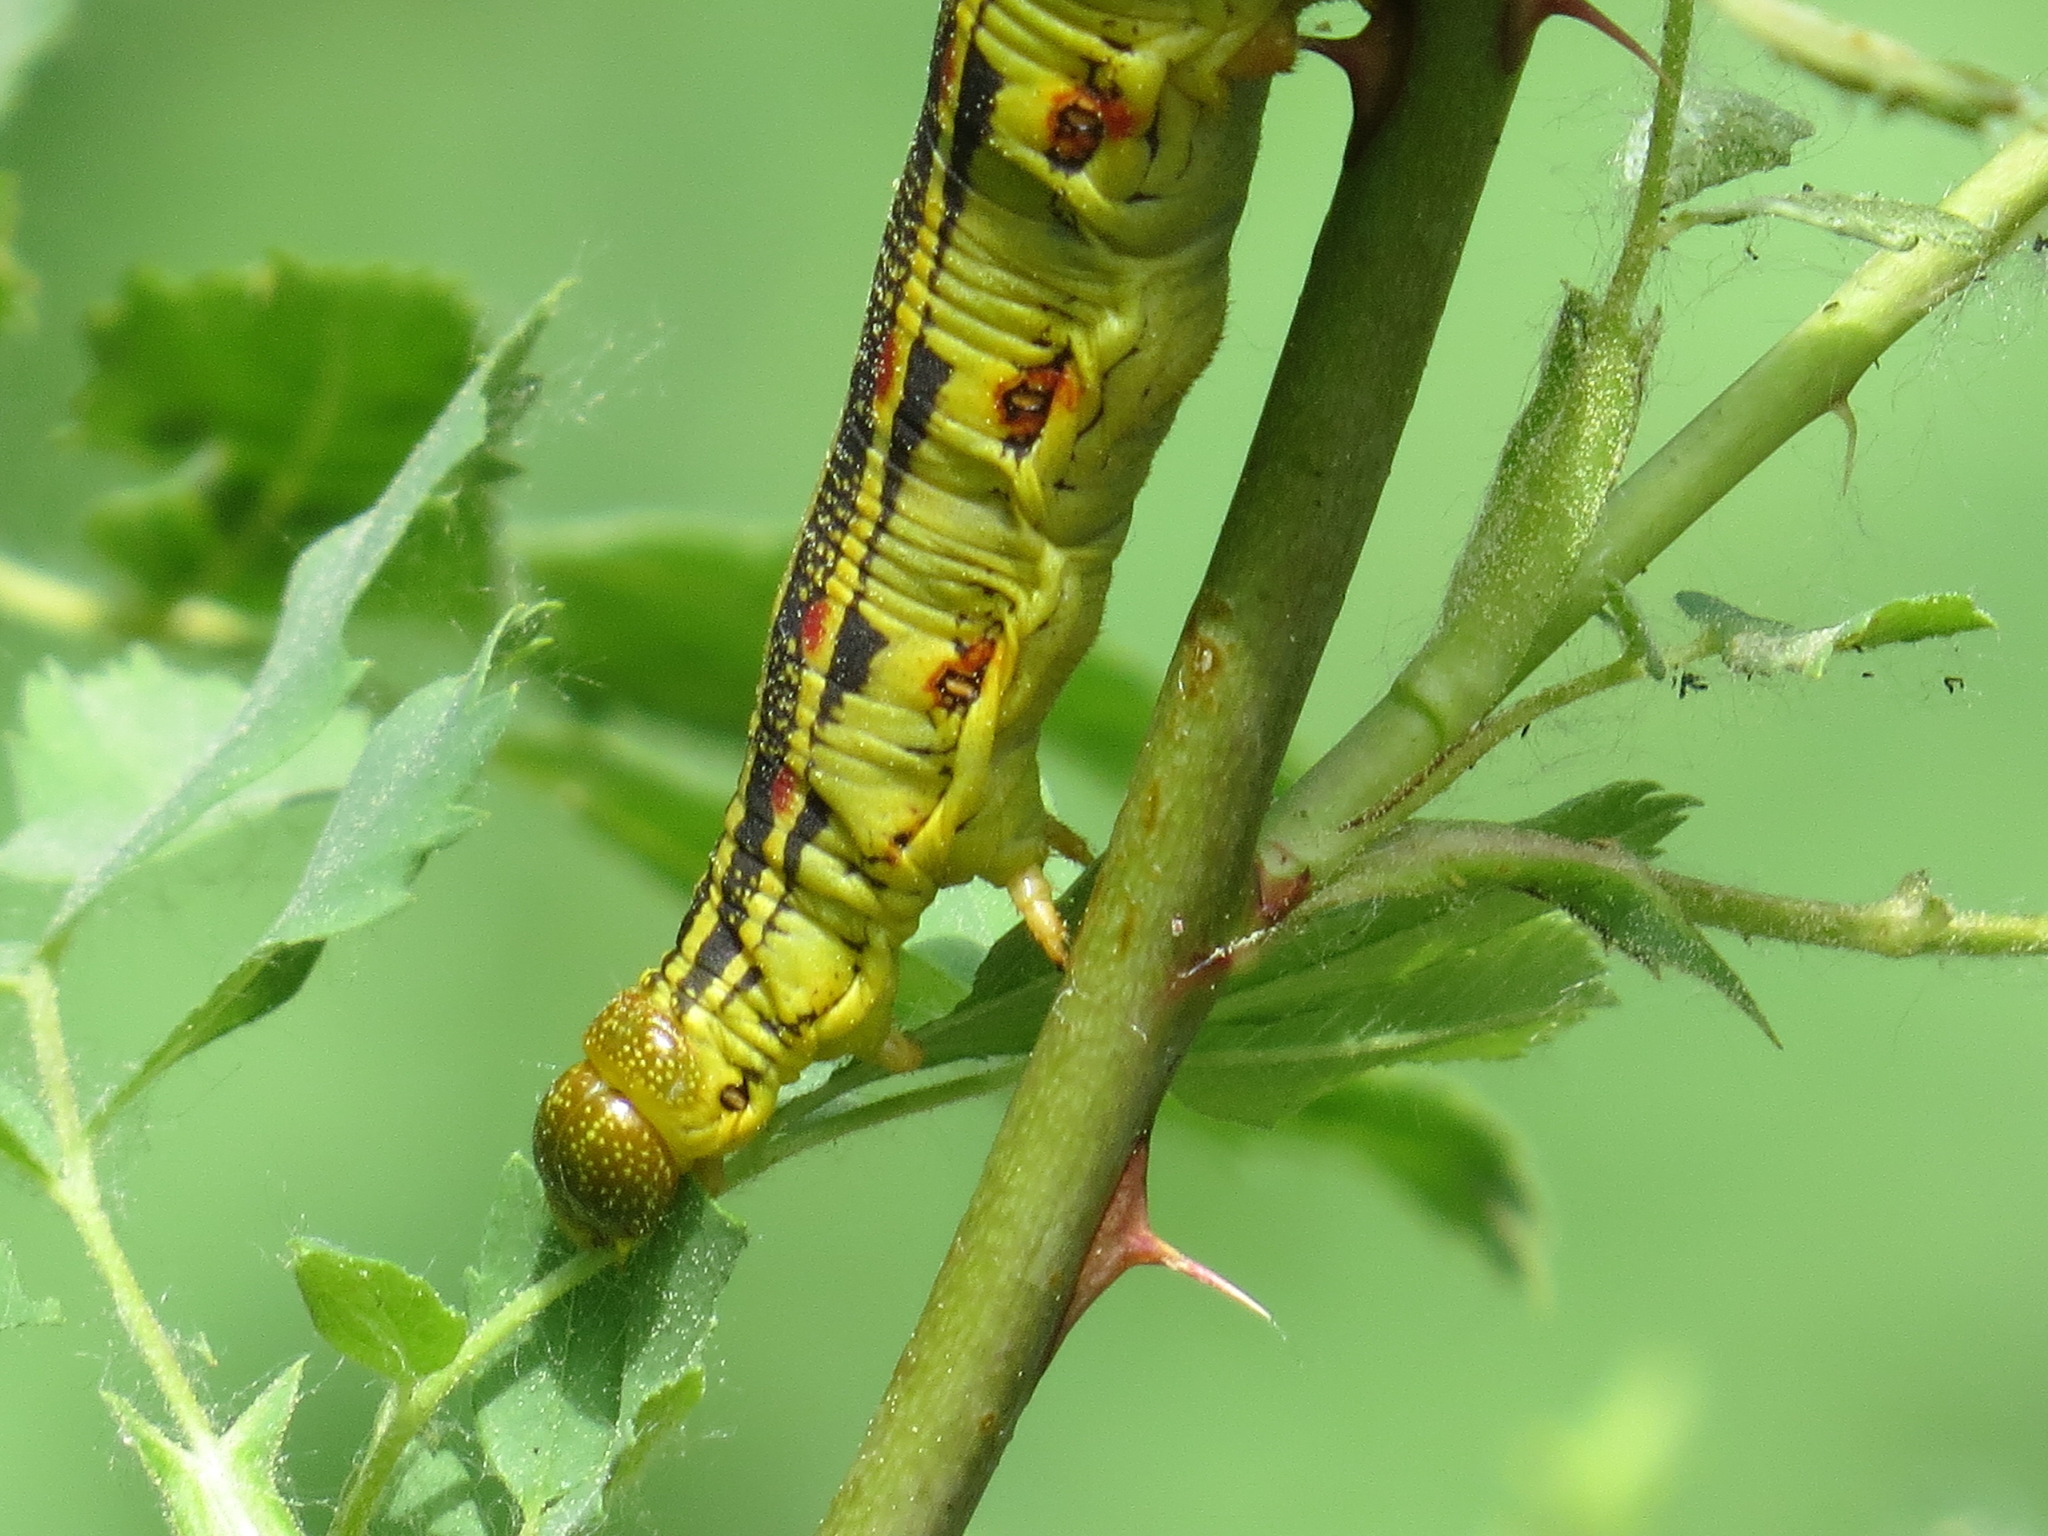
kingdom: Animalia
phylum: Arthropoda
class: Insecta
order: Lepidoptera
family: Sphingidae
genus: Hyles
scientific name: Hyles lineata
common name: White-lined sphinx
